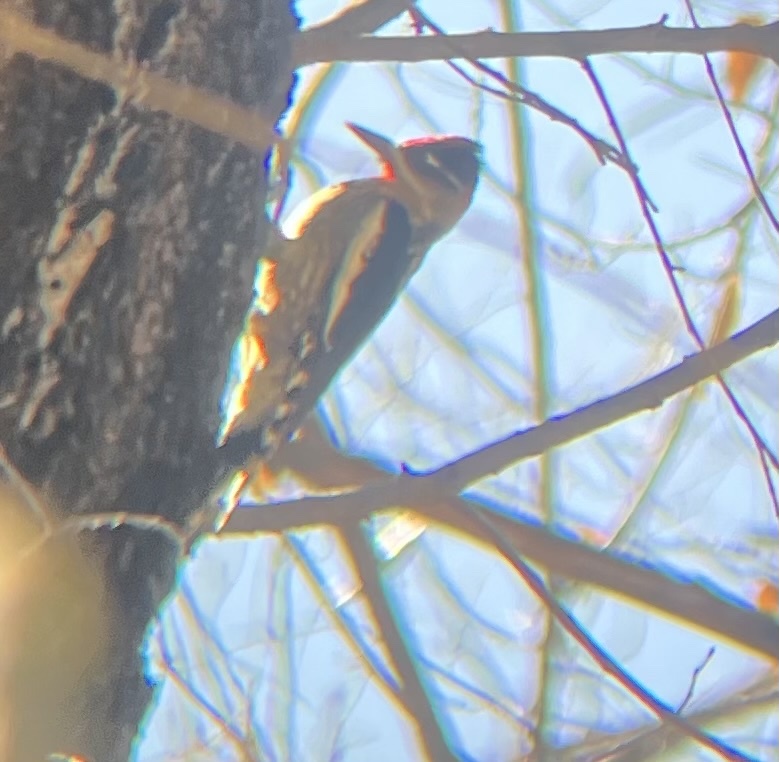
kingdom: Animalia
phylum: Chordata
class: Aves
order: Piciformes
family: Picidae
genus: Sphyrapicus
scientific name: Sphyrapicus nuchalis
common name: Red-naped sapsucker
